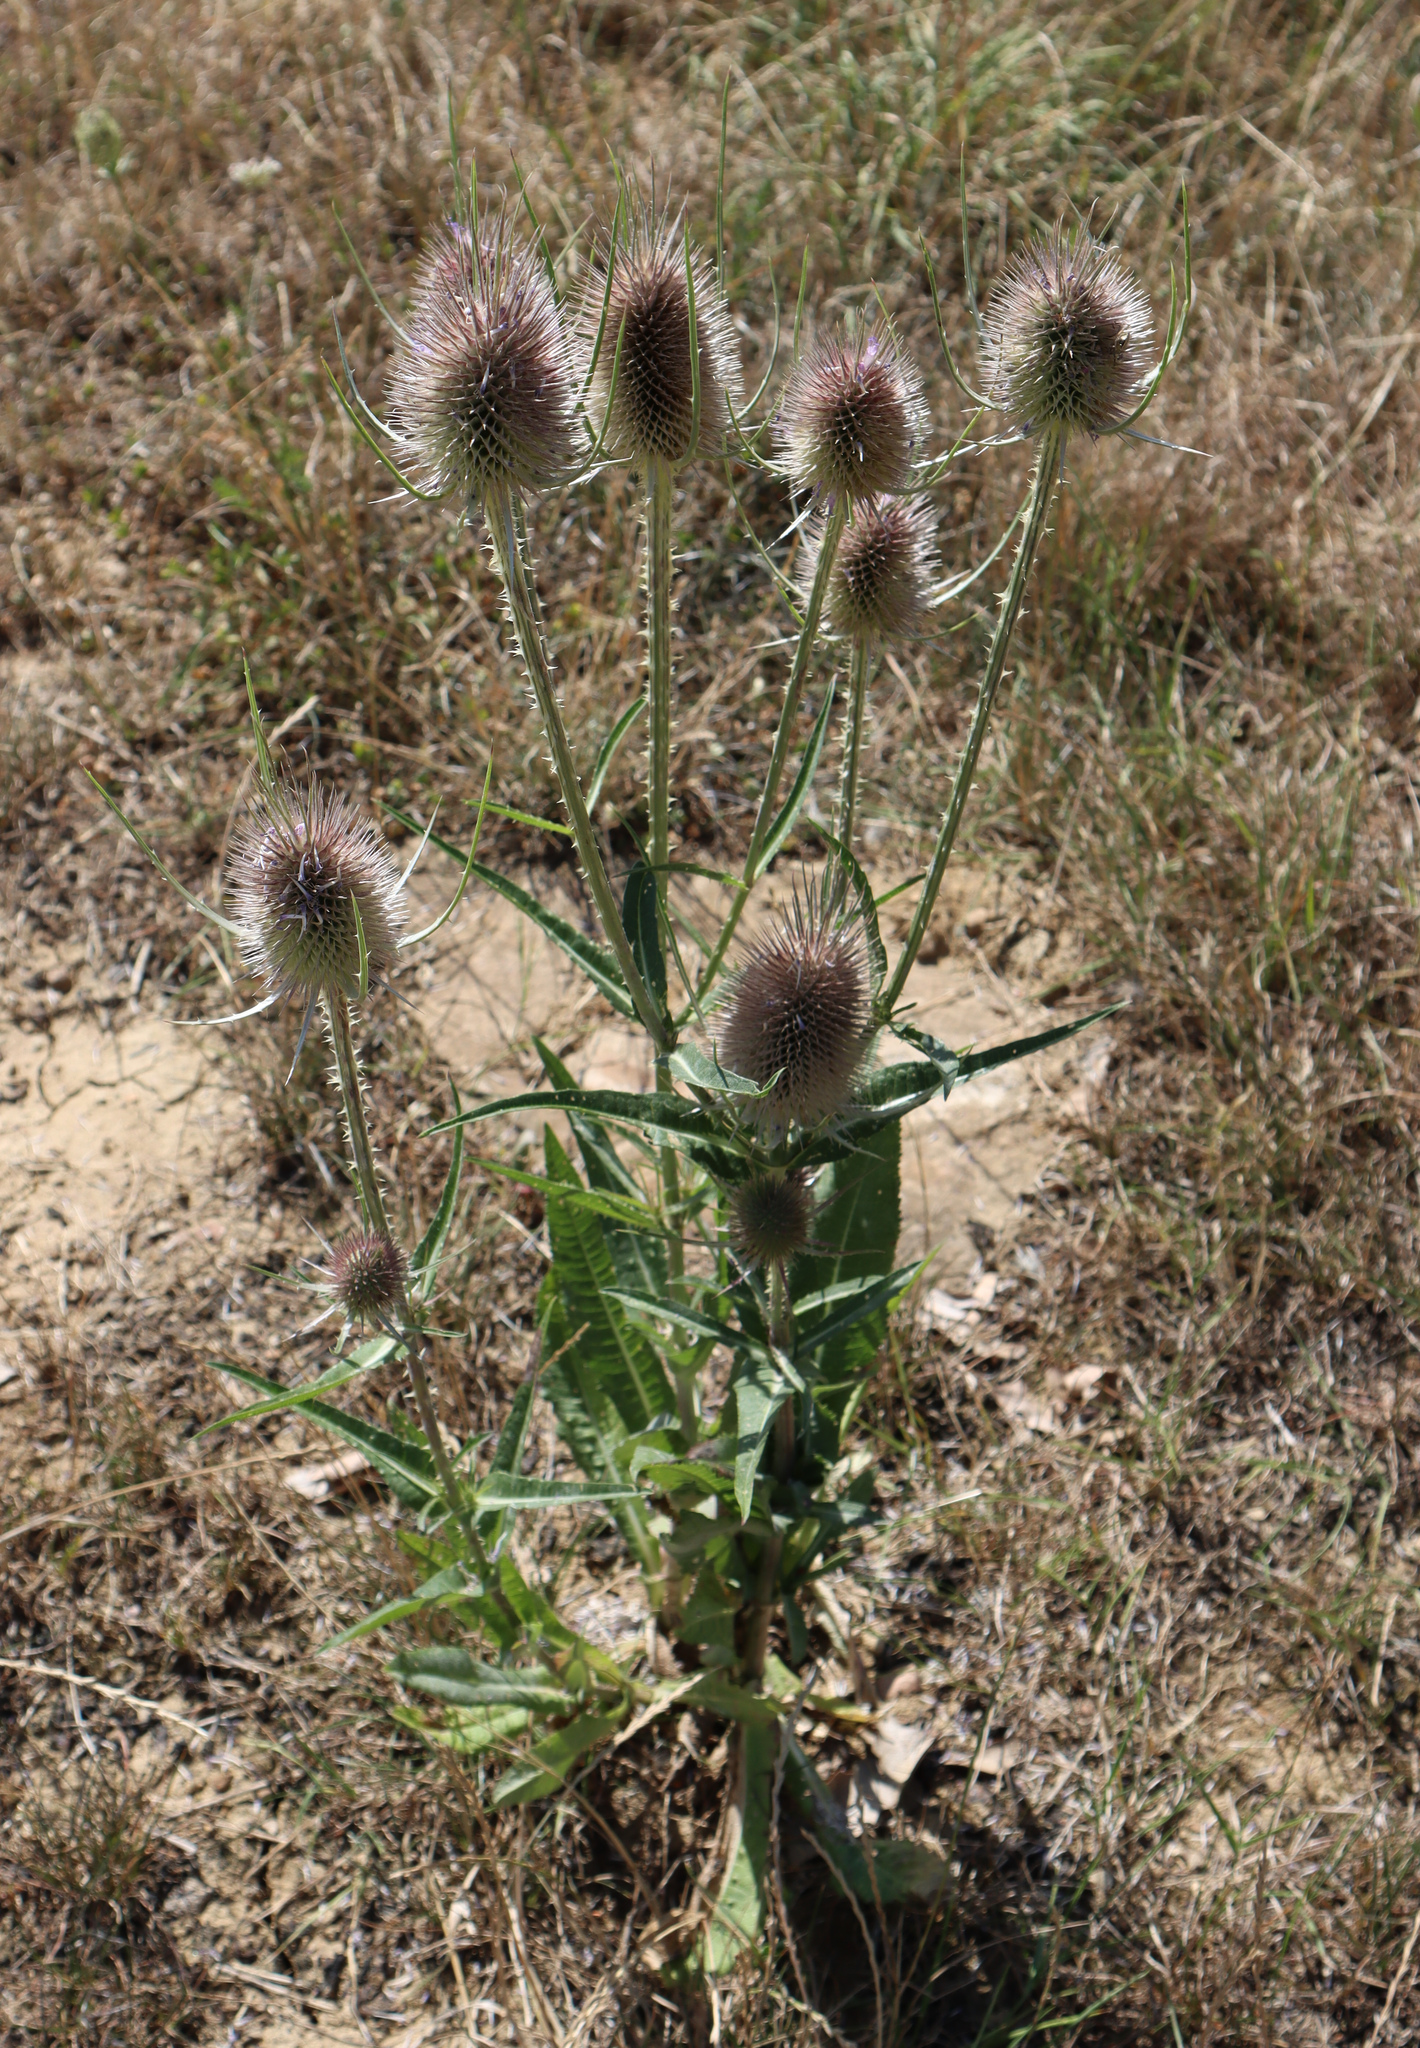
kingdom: Plantae
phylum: Tracheophyta
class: Magnoliopsida
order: Dipsacales
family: Caprifoliaceae
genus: Dipsacus
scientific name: Dipsacus fullonum
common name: Teasel
